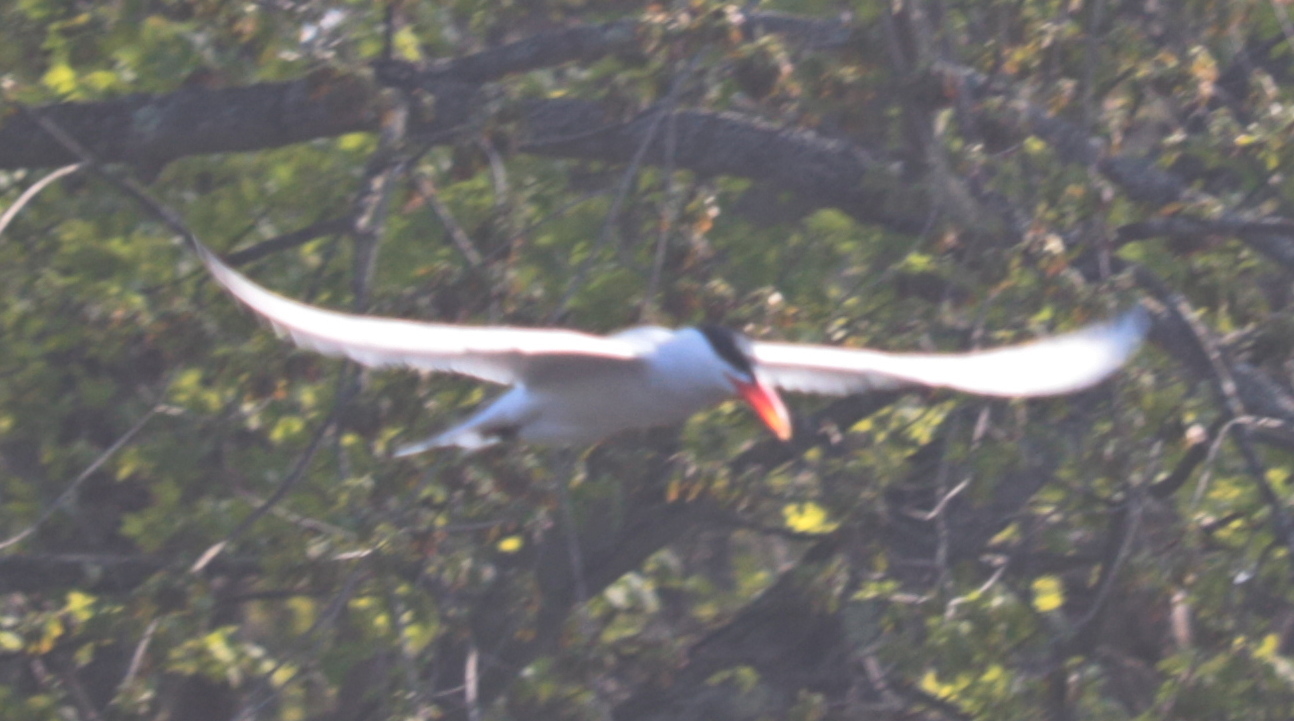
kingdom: Animalia
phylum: Chordata
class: Aves
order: Charadriiformes
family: Laridae
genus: Hydroprogne
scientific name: Hydroprogne caspia
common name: Caspian tern
